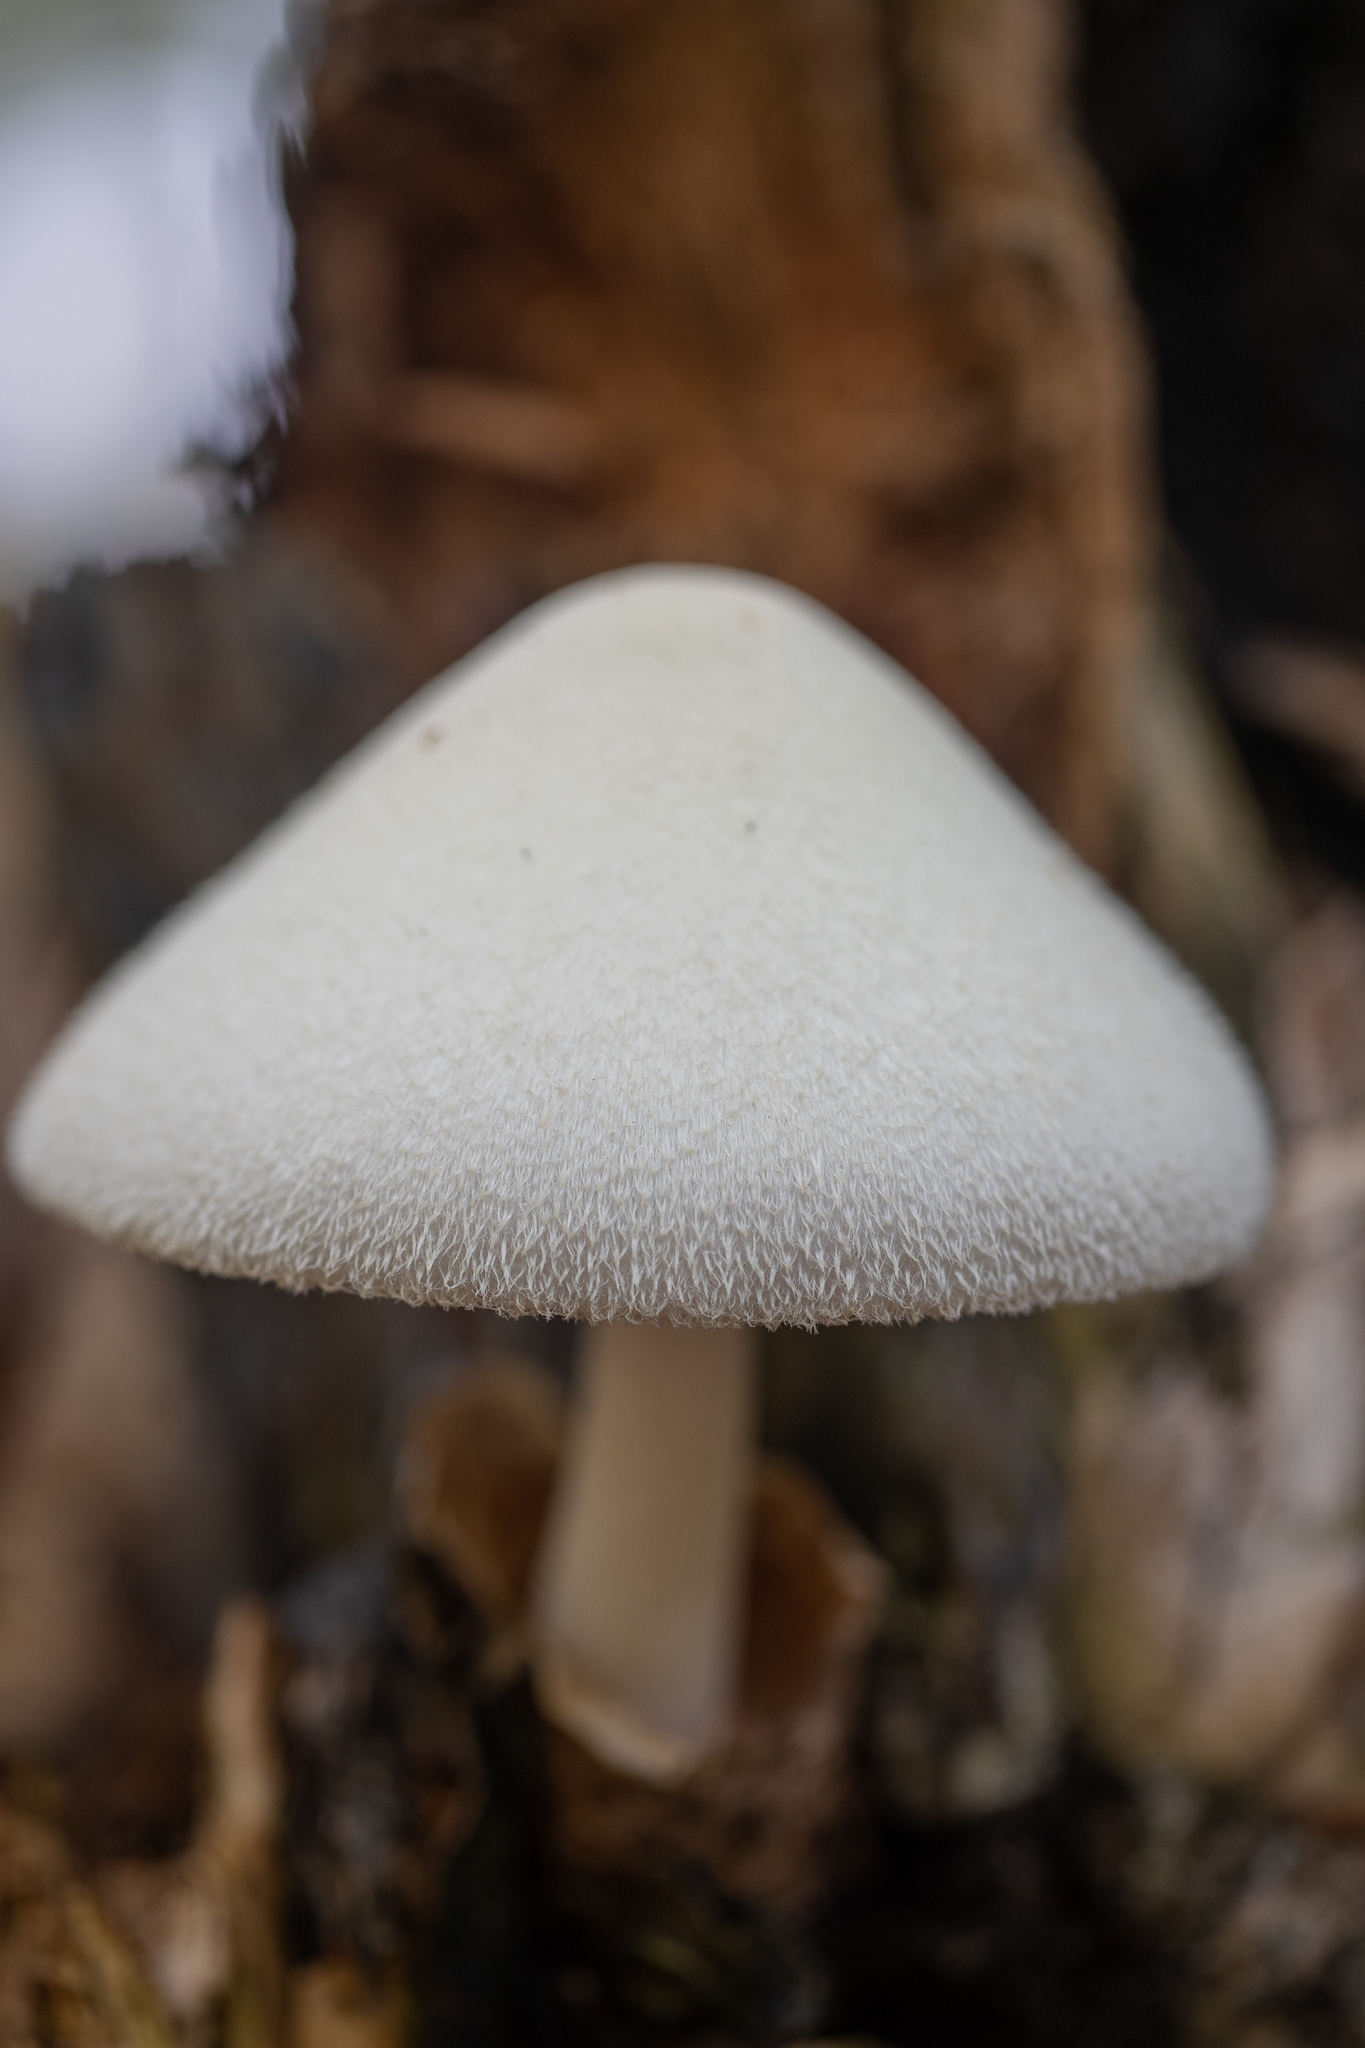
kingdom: Fungi
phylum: Basidiomycota
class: Agaricomycetes
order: Agaricales
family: Pluteaceae
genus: Volvariella
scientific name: Volvariella bombycina
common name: Silky rosegill
